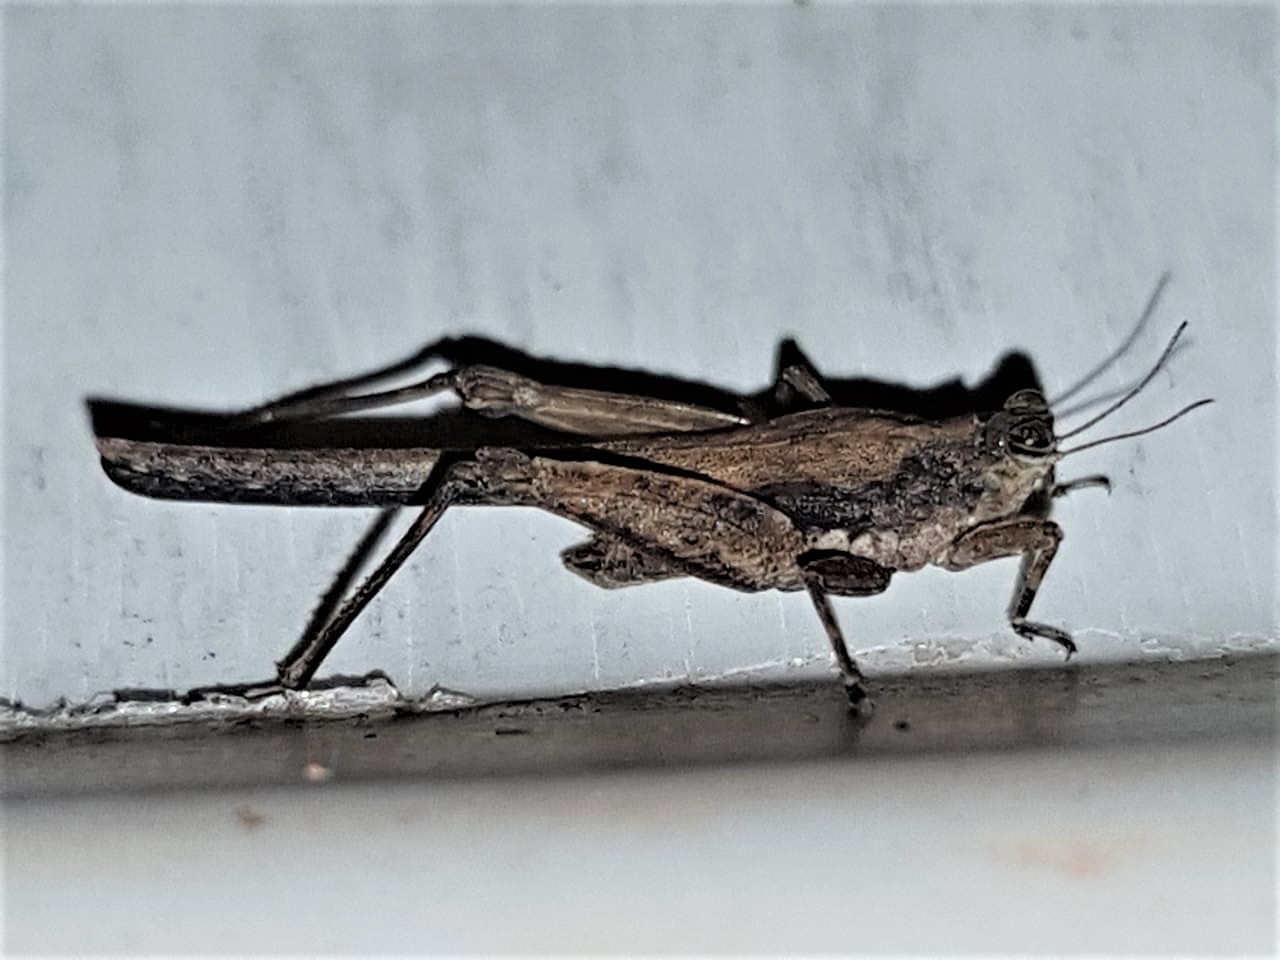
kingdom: Animalia
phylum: Arthropoda
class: Insecta
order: Orthoptera
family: Tetrigidae
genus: Danielatettix
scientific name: Danielatettix caudatus
